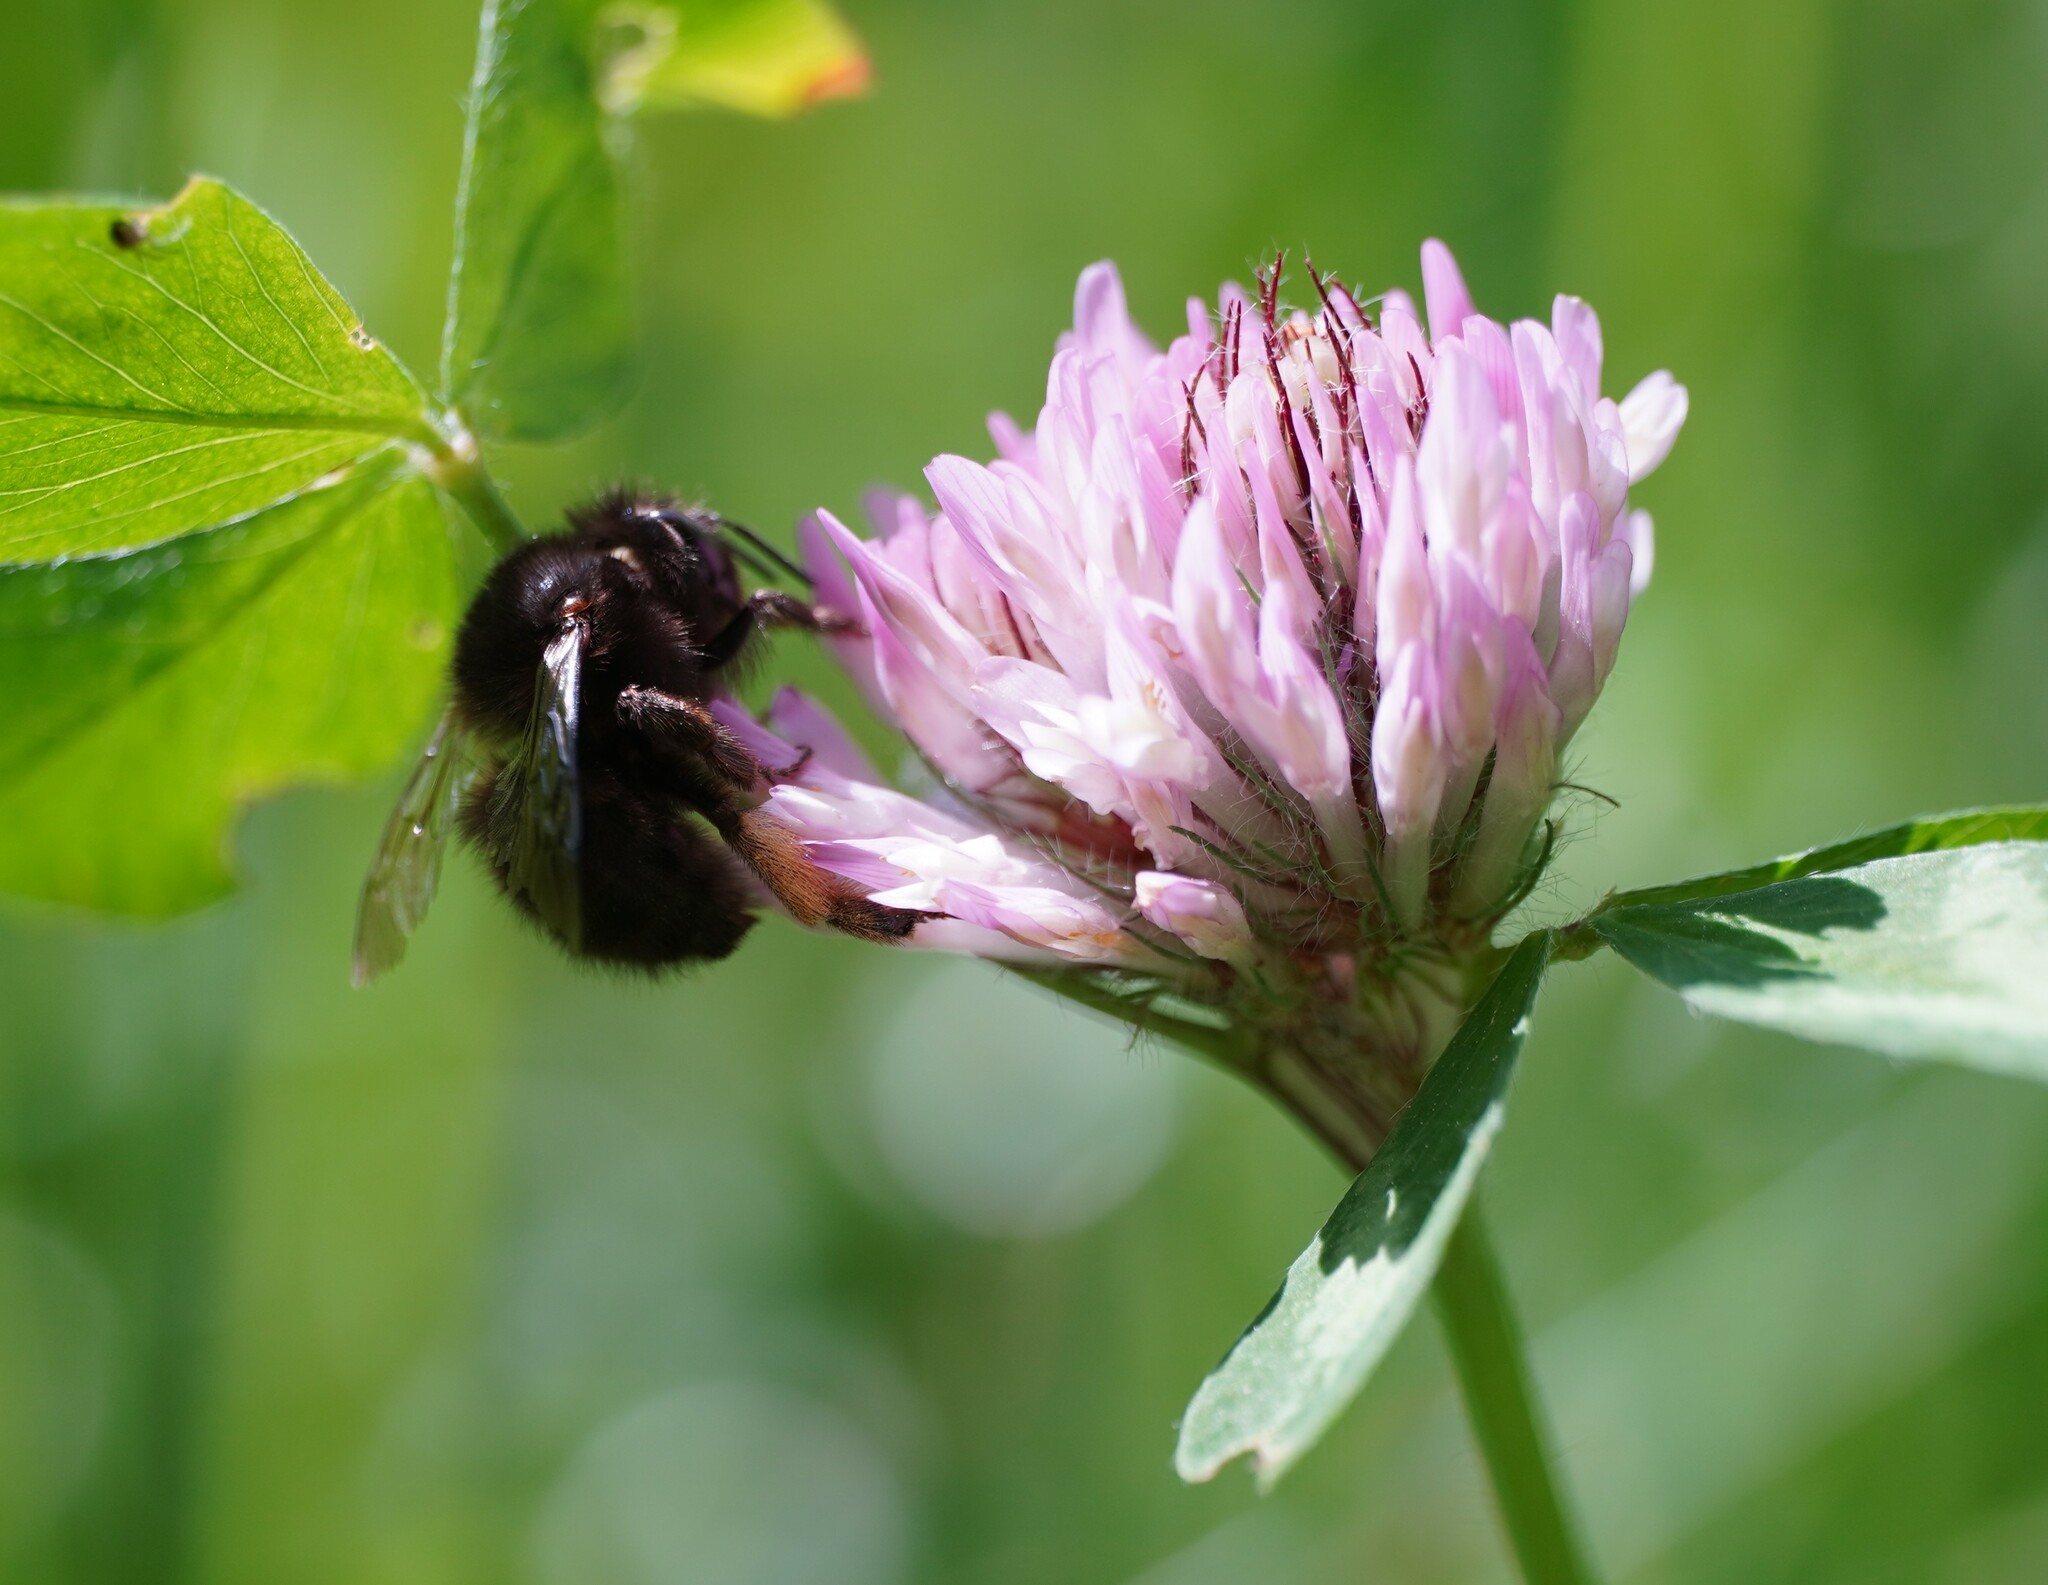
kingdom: Animalia
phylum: Arthropoda
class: Insecta
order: Hymenoptera
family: Apidae
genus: Anthophora
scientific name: Anthophora plumipes
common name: Hairy-footed flower bee
